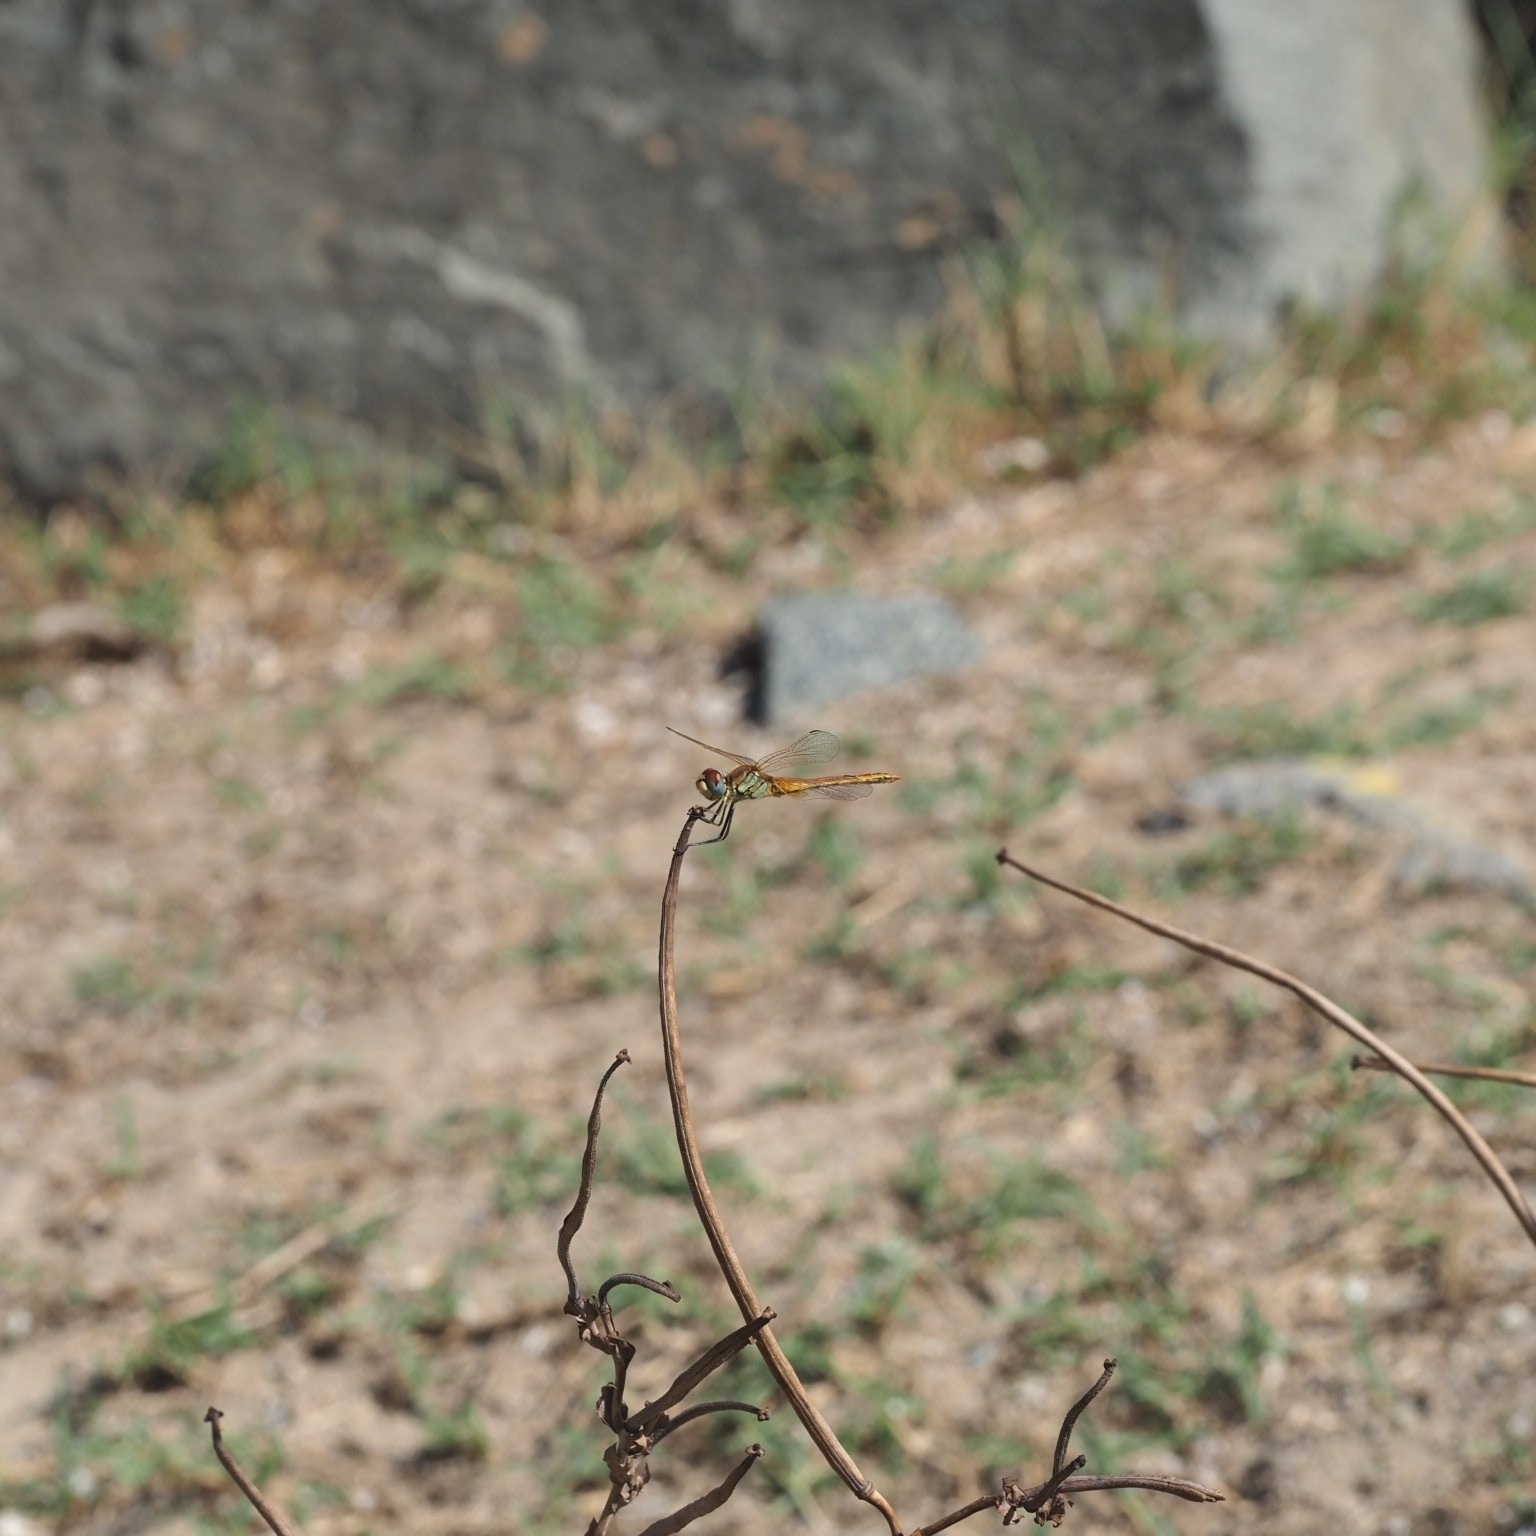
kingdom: Animalia
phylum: Arthropoda
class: Insecta
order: Odonata
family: Libellulidae
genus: Sympetrum
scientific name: Sympetrum fonscolombii
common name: Red-veined darter
